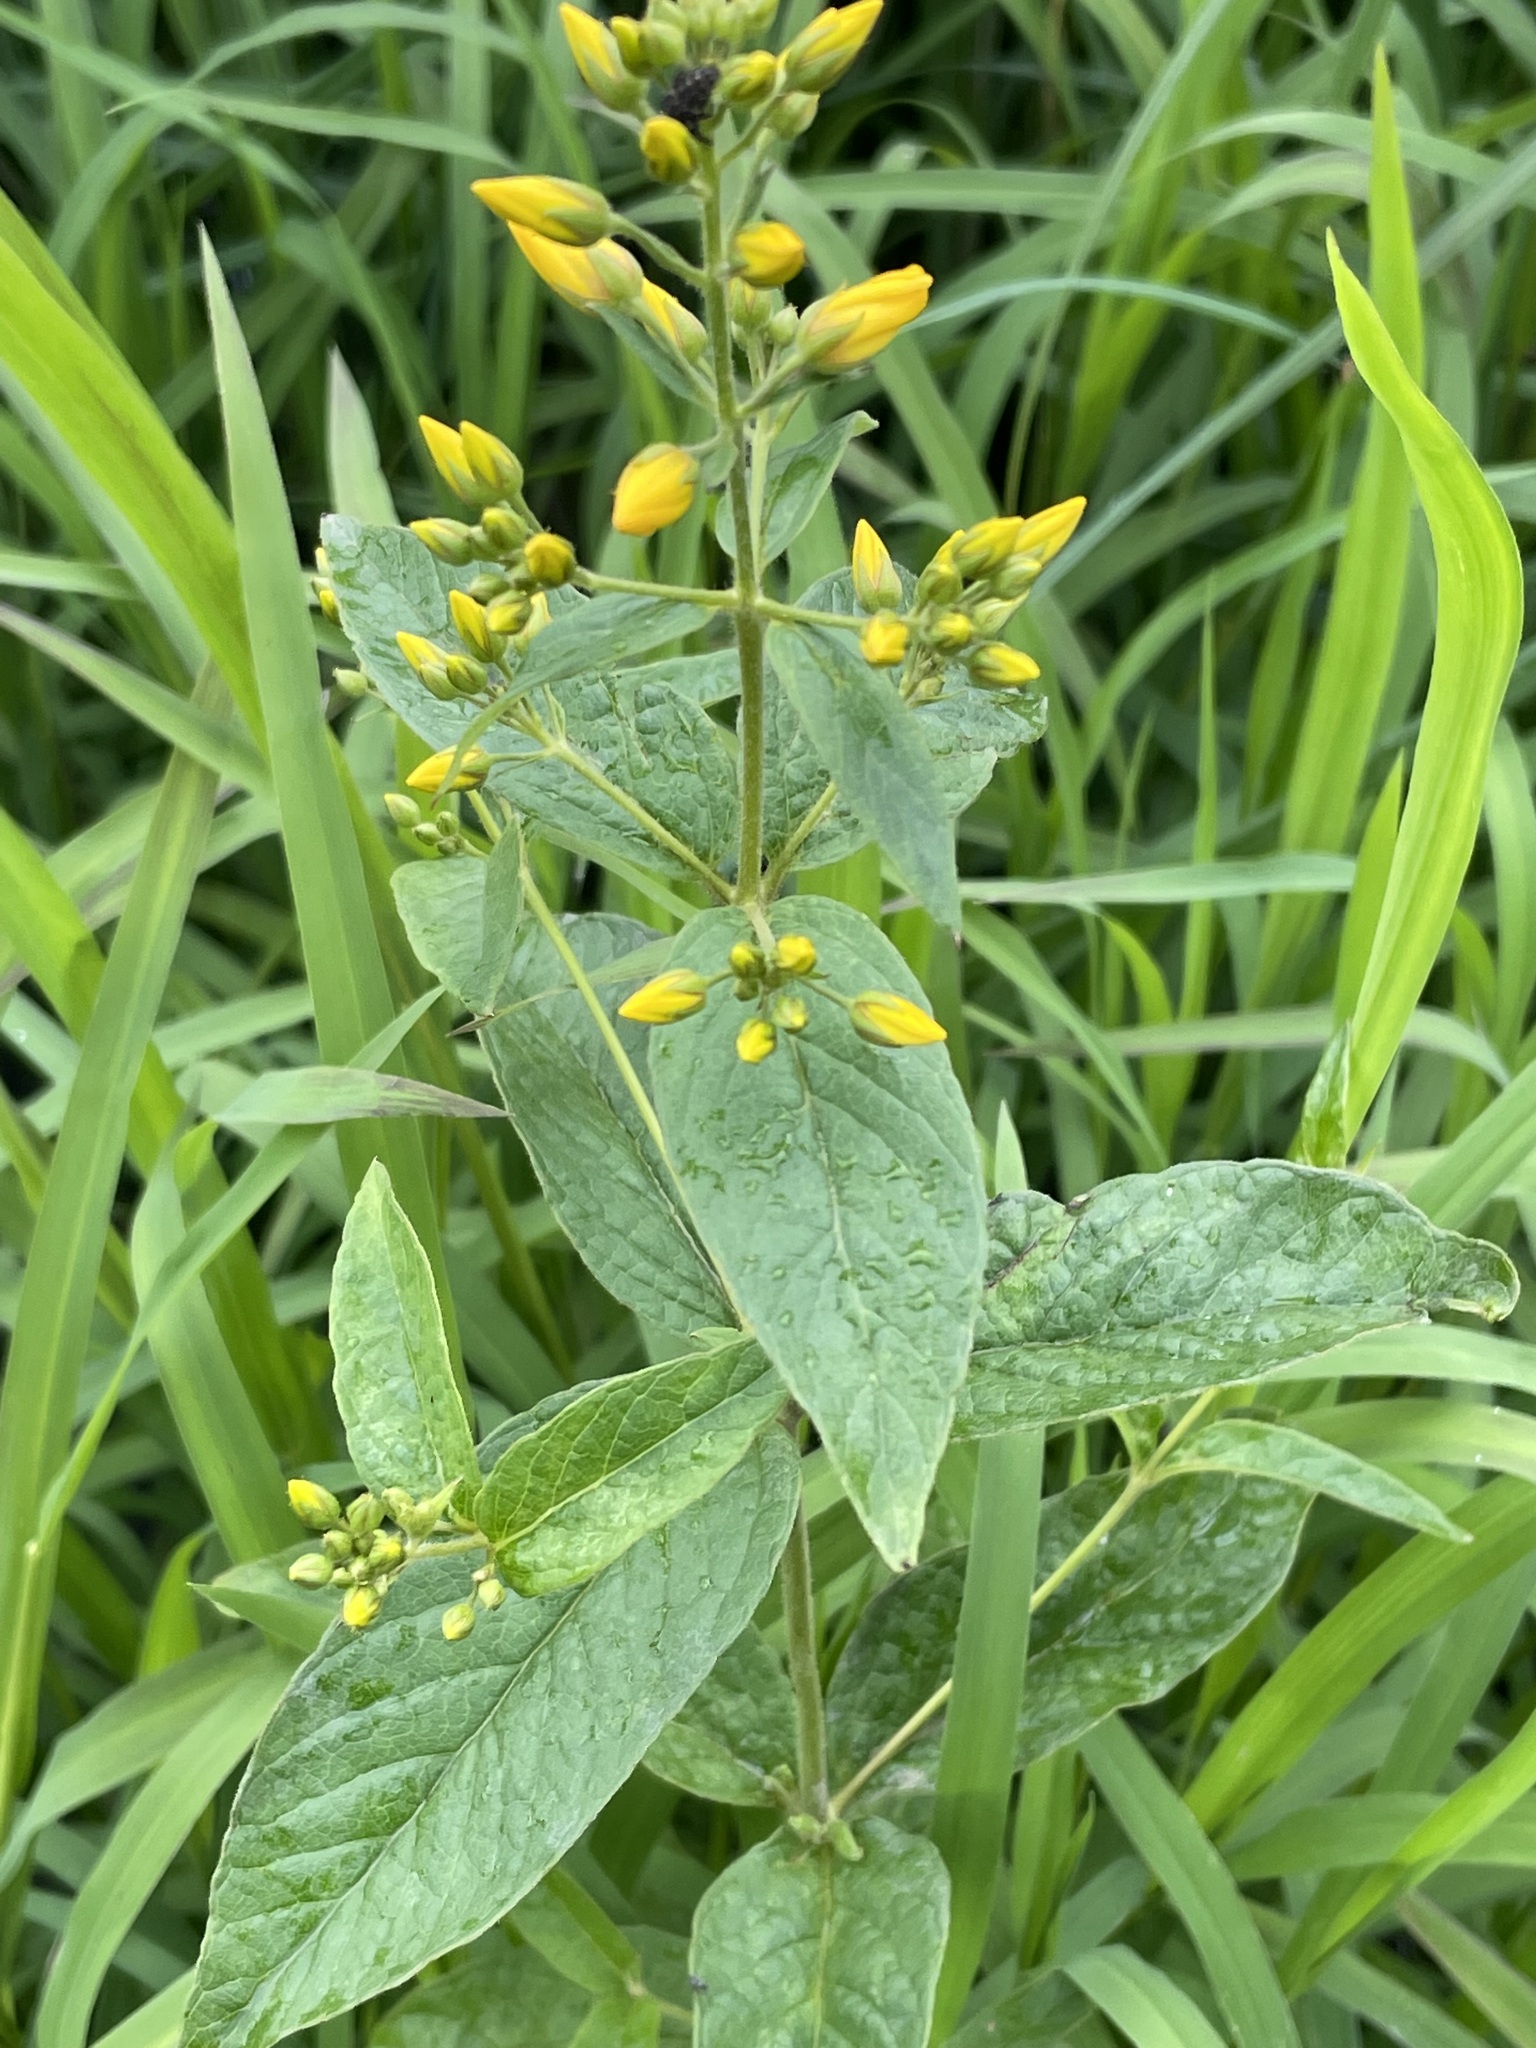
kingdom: Plantae
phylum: Tracheophyta
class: Magnoliopsida
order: Ericales
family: Primulaceae
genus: Lysimachia
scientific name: Lysimachia vulgaris
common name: Yellow loosestrife
